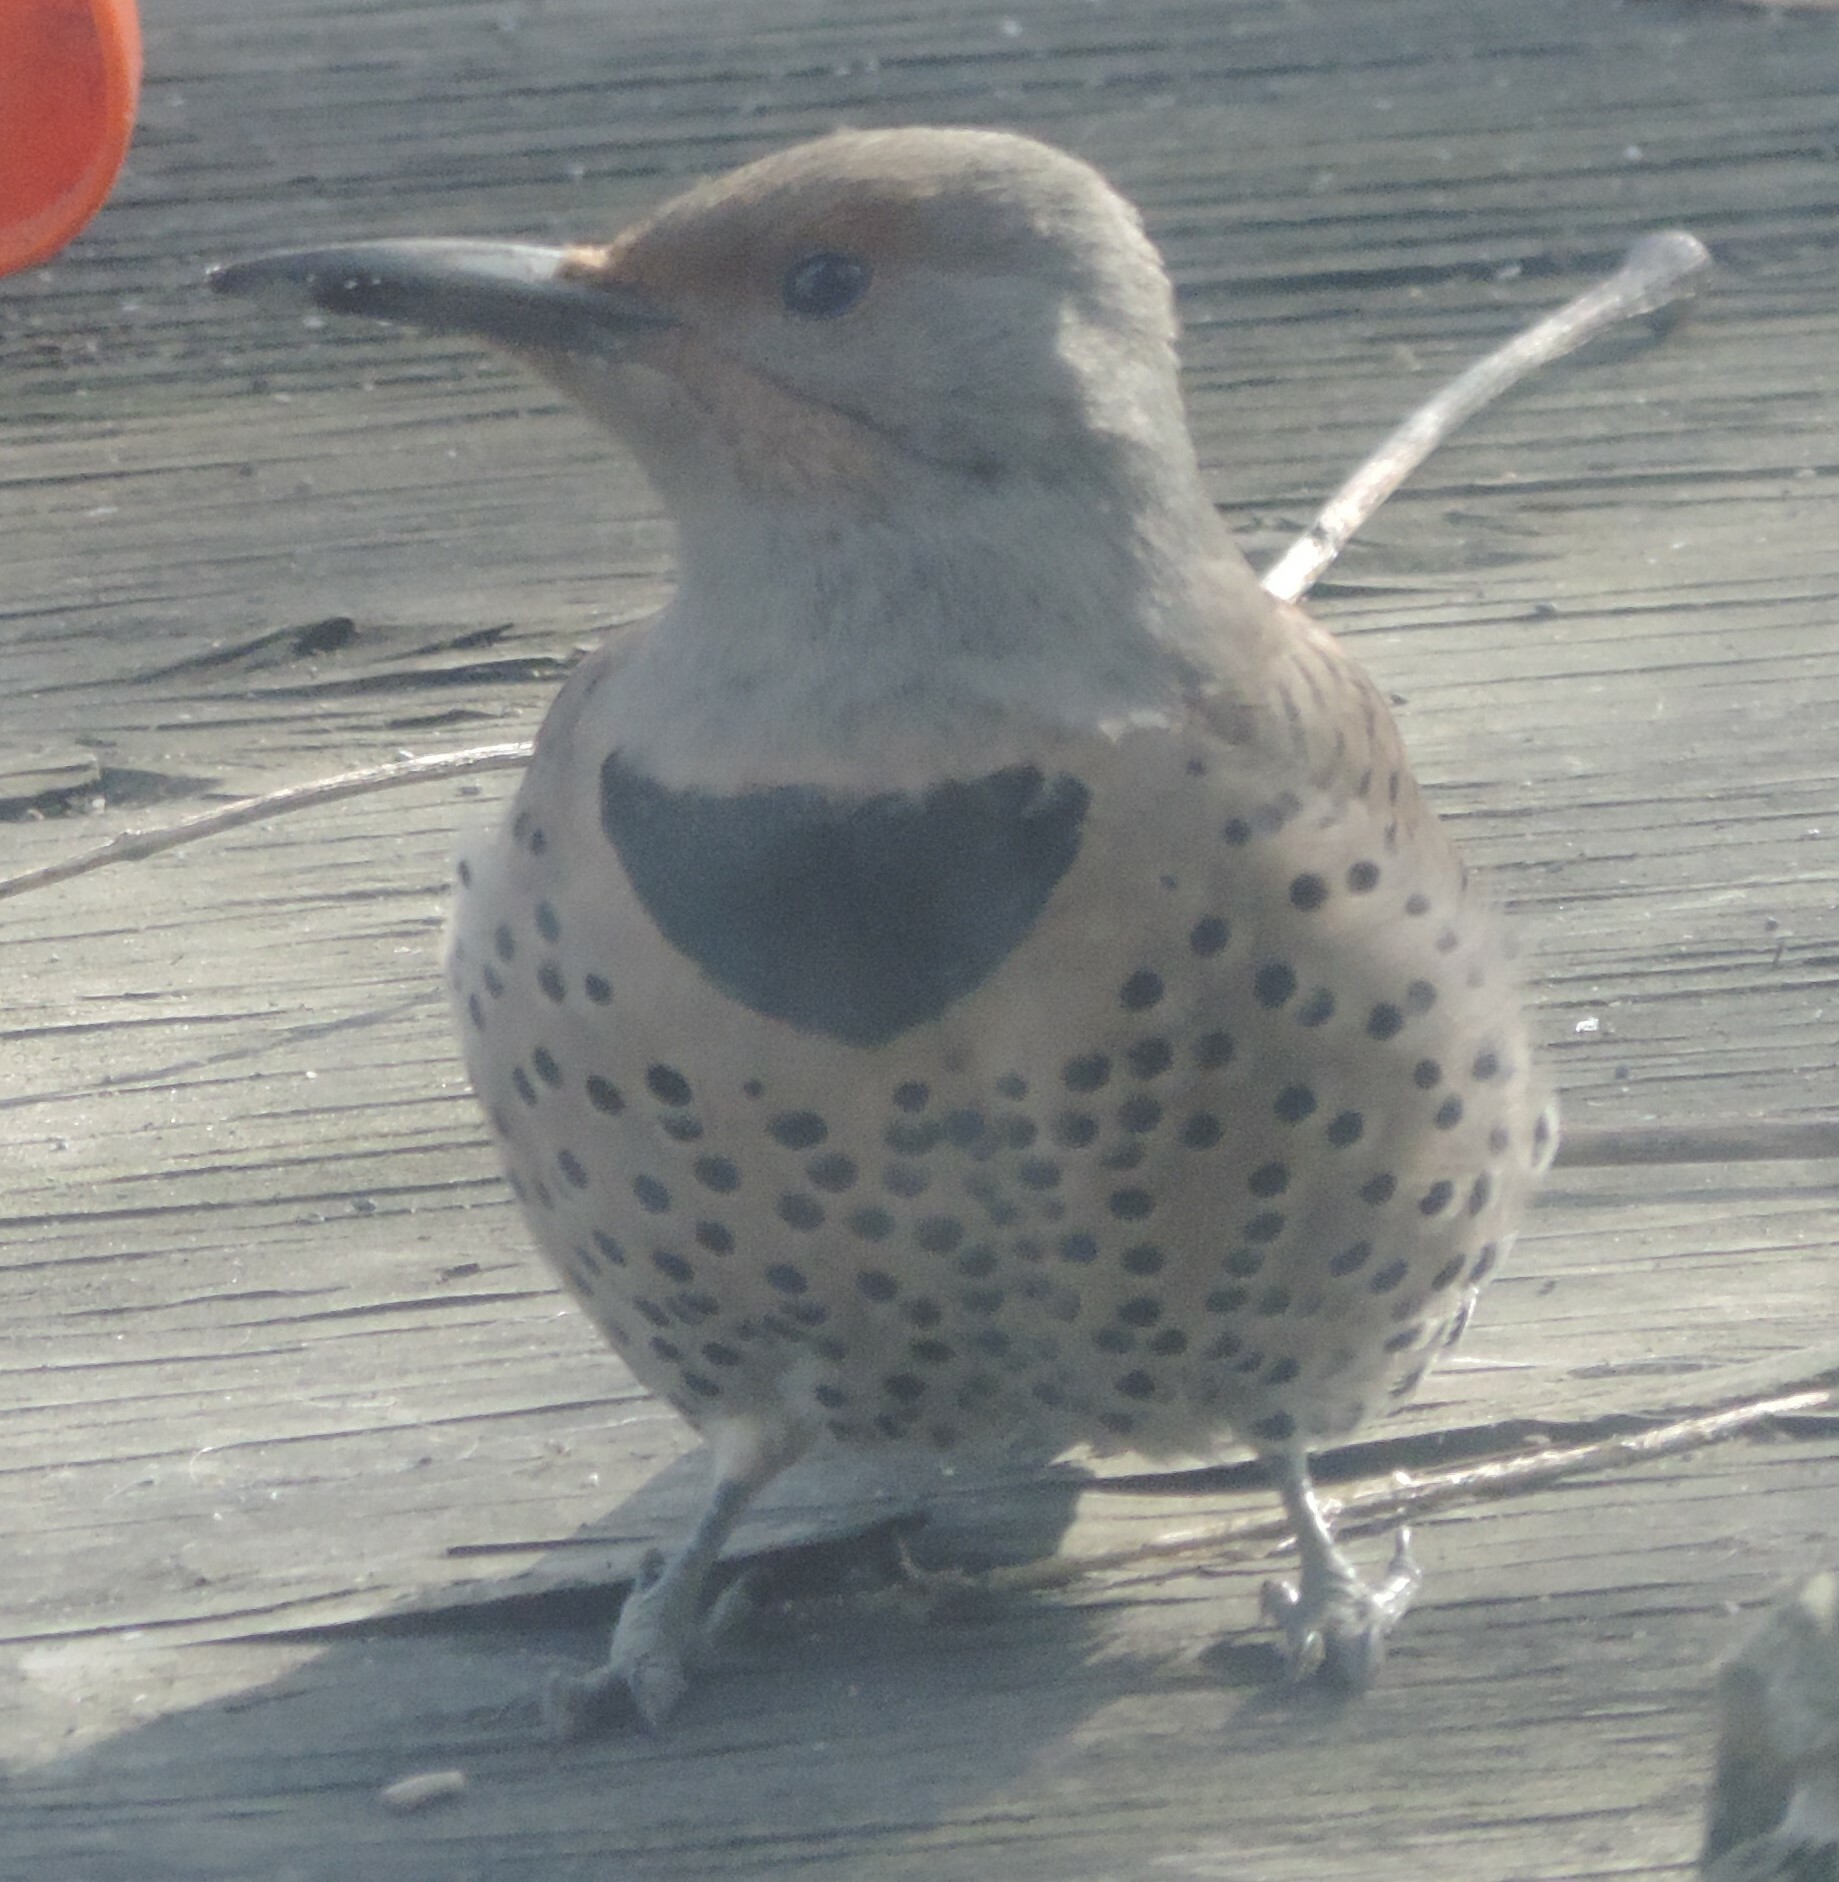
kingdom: Animalia
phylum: Chordata
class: Aves
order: Piciformes
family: Picidae
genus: Colaptes
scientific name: Colaptes auratus
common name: Northern flicker
